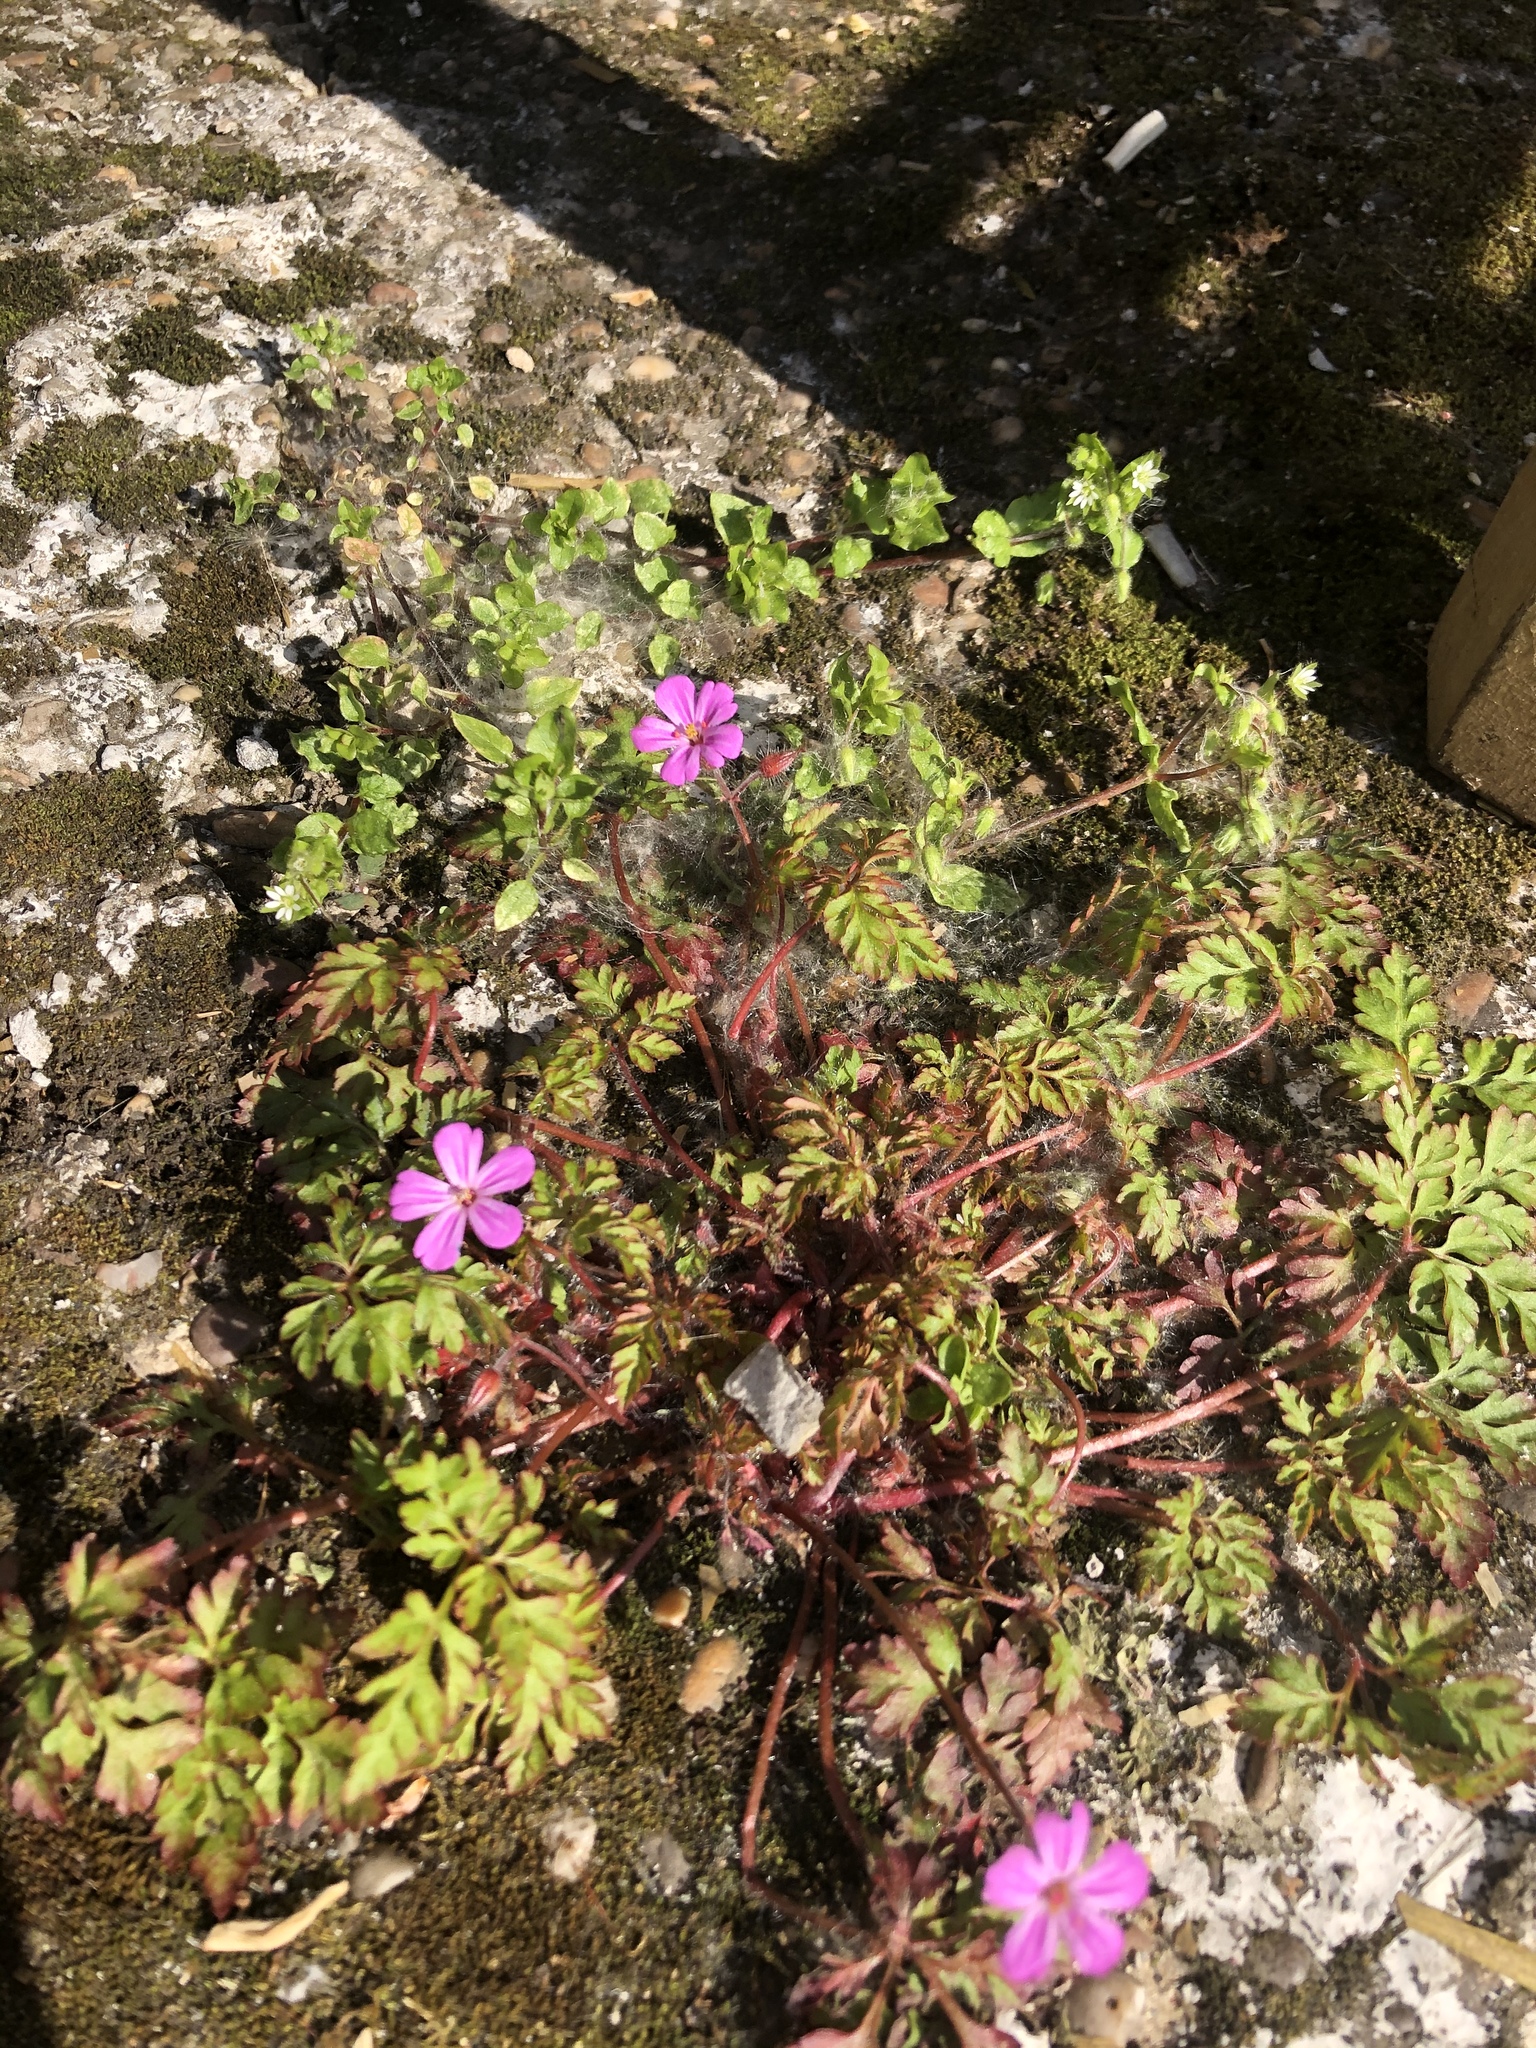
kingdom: Plantae
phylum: Tracheophyta
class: Magnoliopsida
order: Geraniales
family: Geraniaceae
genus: Geranium
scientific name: Geranium robertianum
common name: Herb-robert
